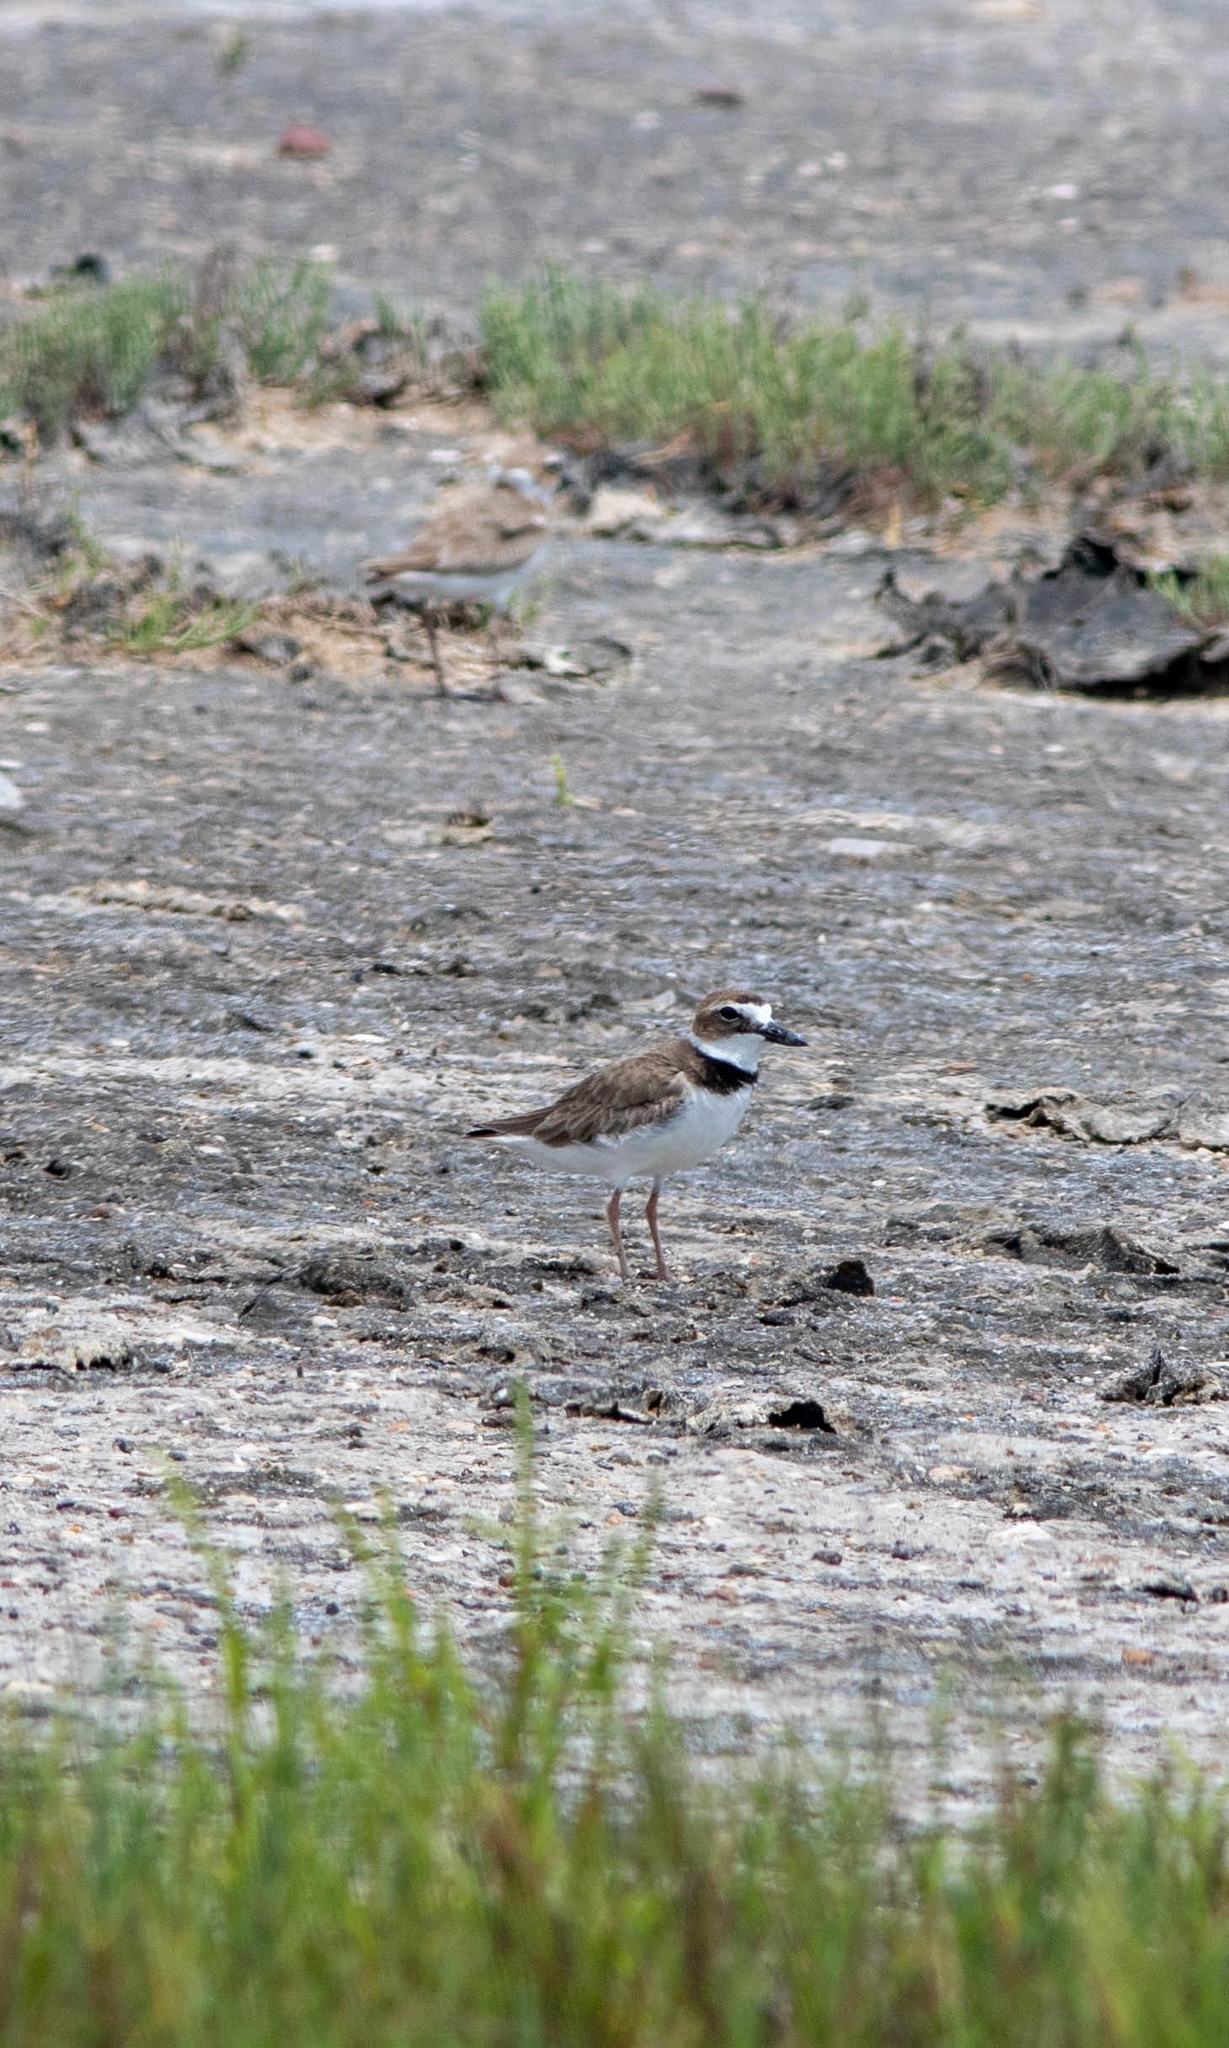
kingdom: Animalia
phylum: Chordata
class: Aves
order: Charadriiformes
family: Charadriidae
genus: Anarhynchus
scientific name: Anarhynchus
